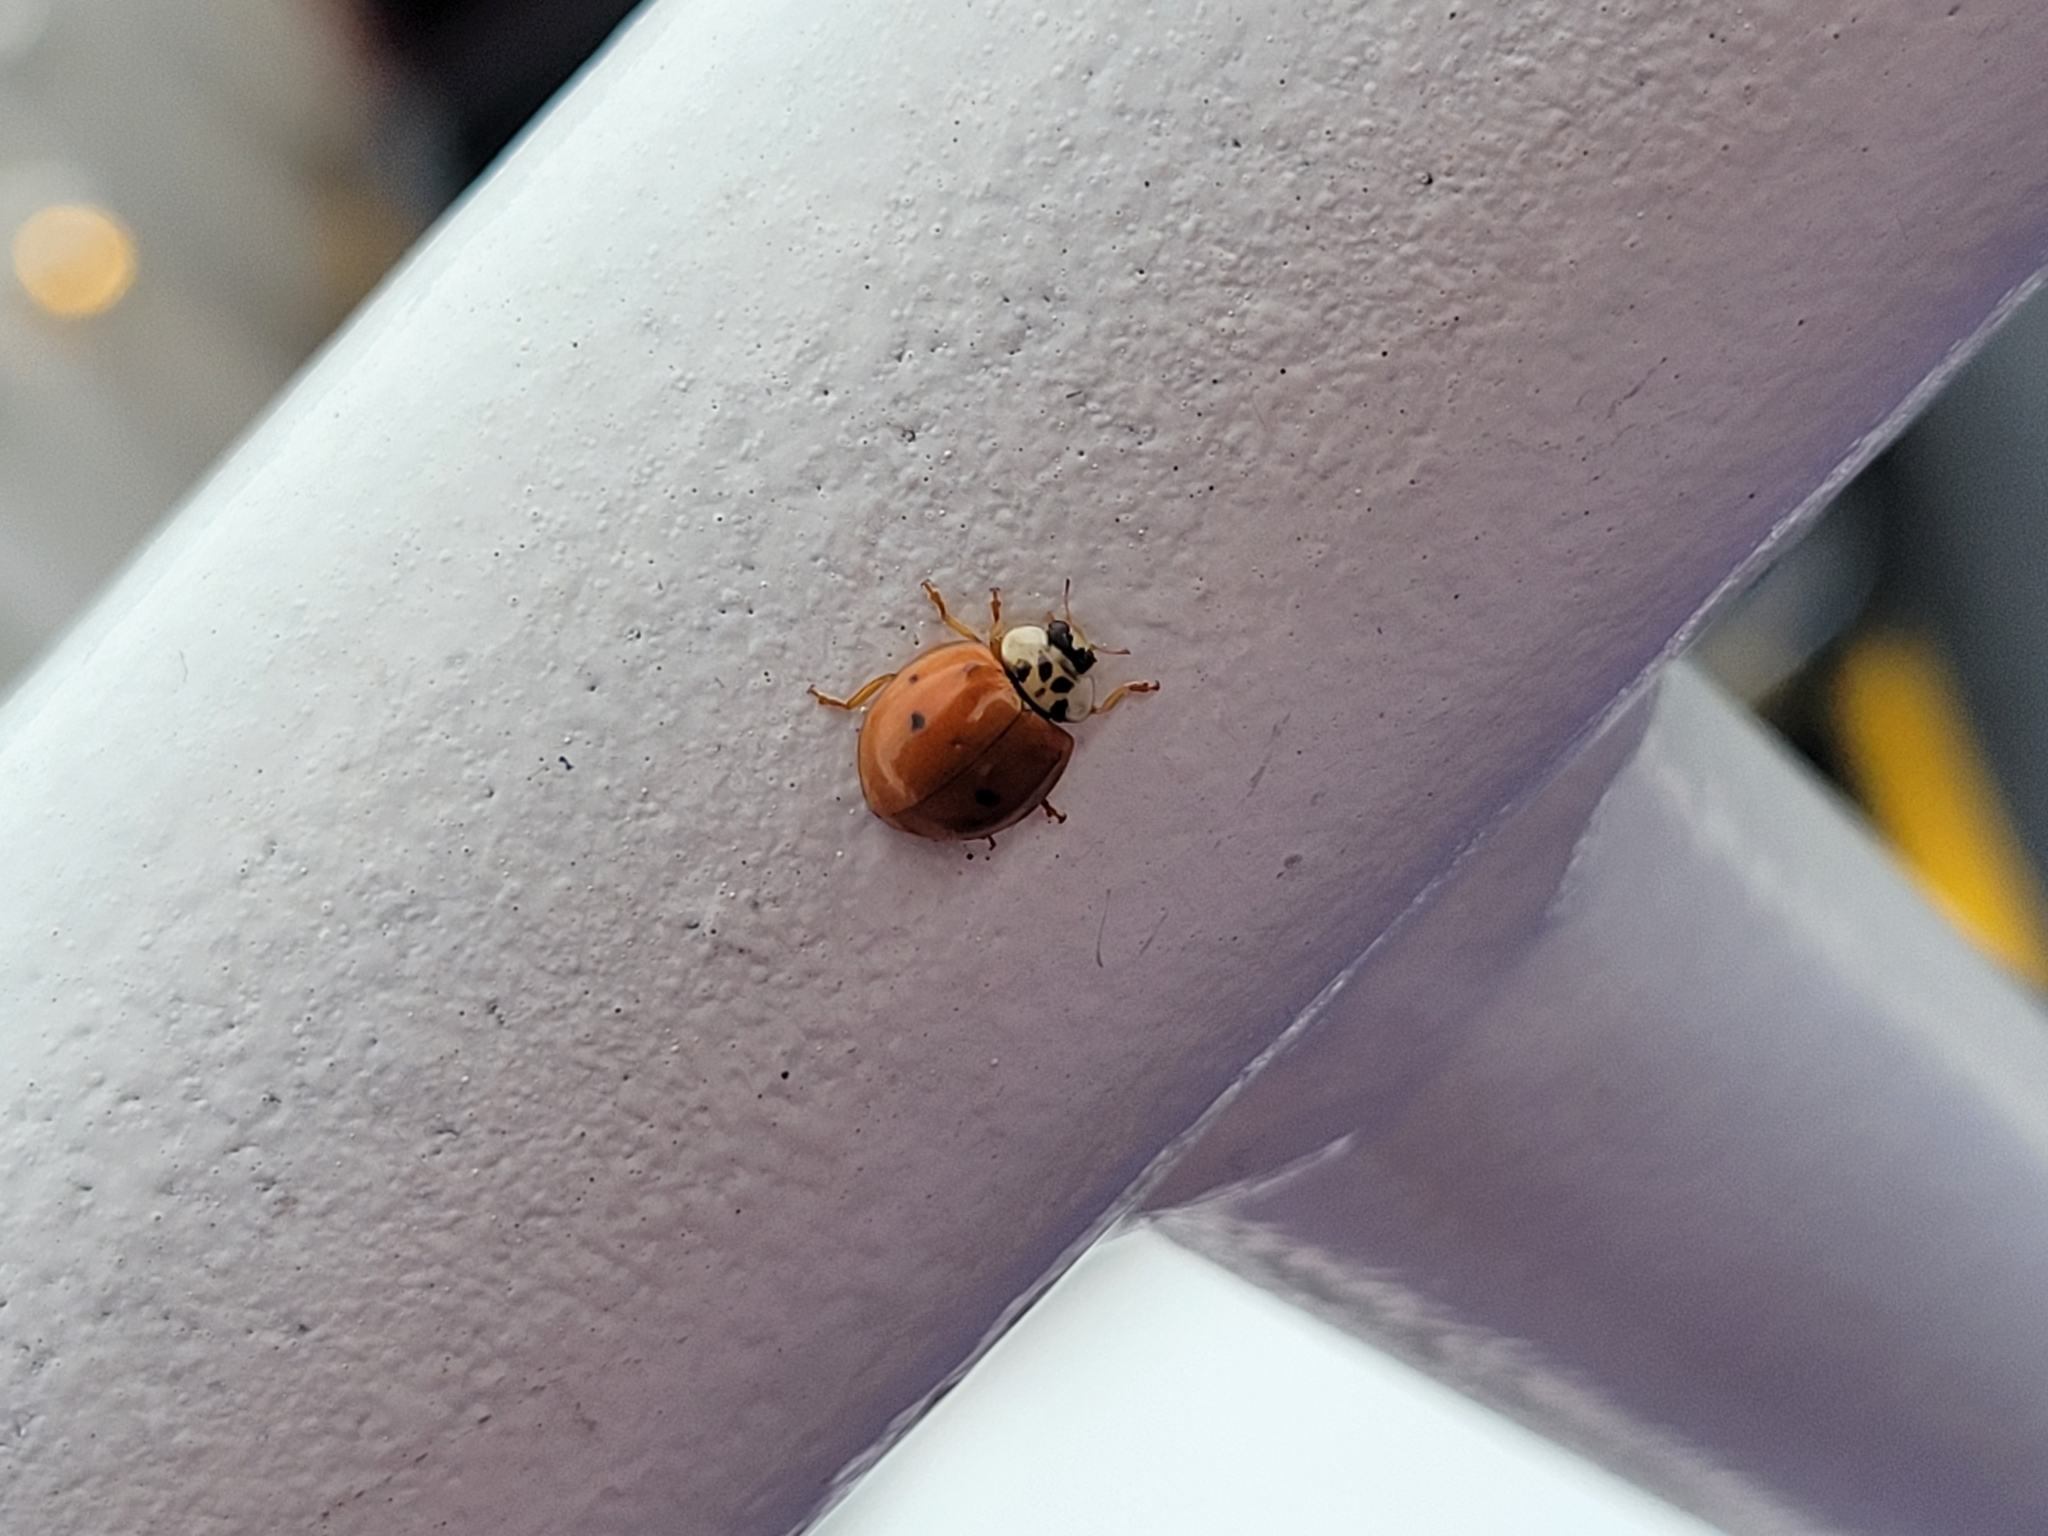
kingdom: Animalia
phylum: Arthropoda
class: Insecta
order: Coleoptera
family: Coccinellidae
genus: Harmonia
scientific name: Harmonia axyridis
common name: Harlequin ladybird
